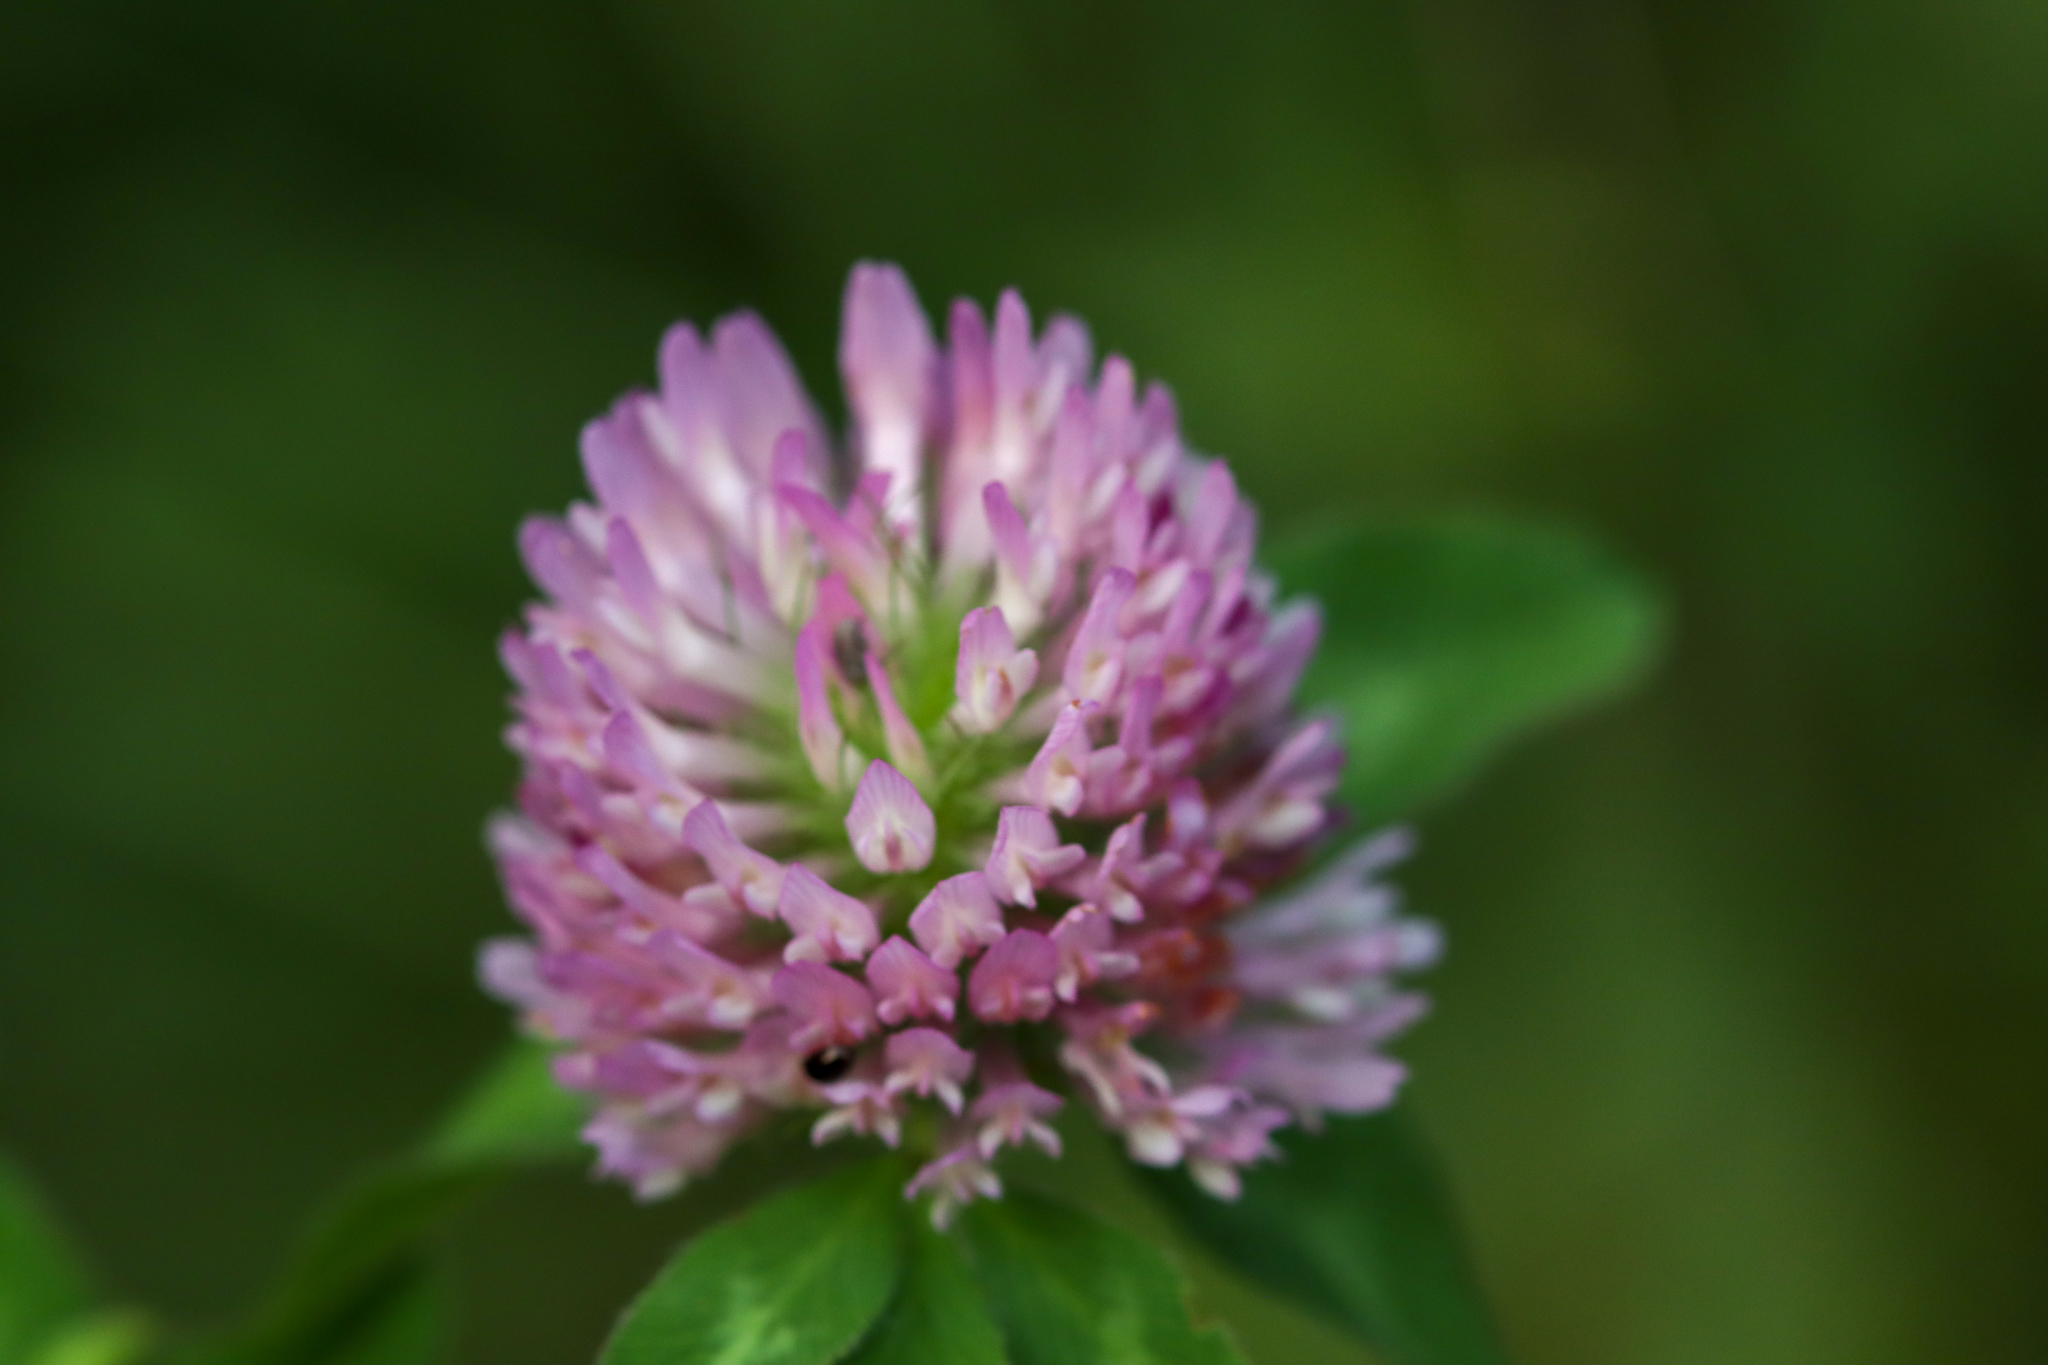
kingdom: Plantae
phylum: Tracheophyta
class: Magnoliopsida
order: Fabales
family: Fabaceae
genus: Trifolium
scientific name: Trifolium pratense
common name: Red clover
